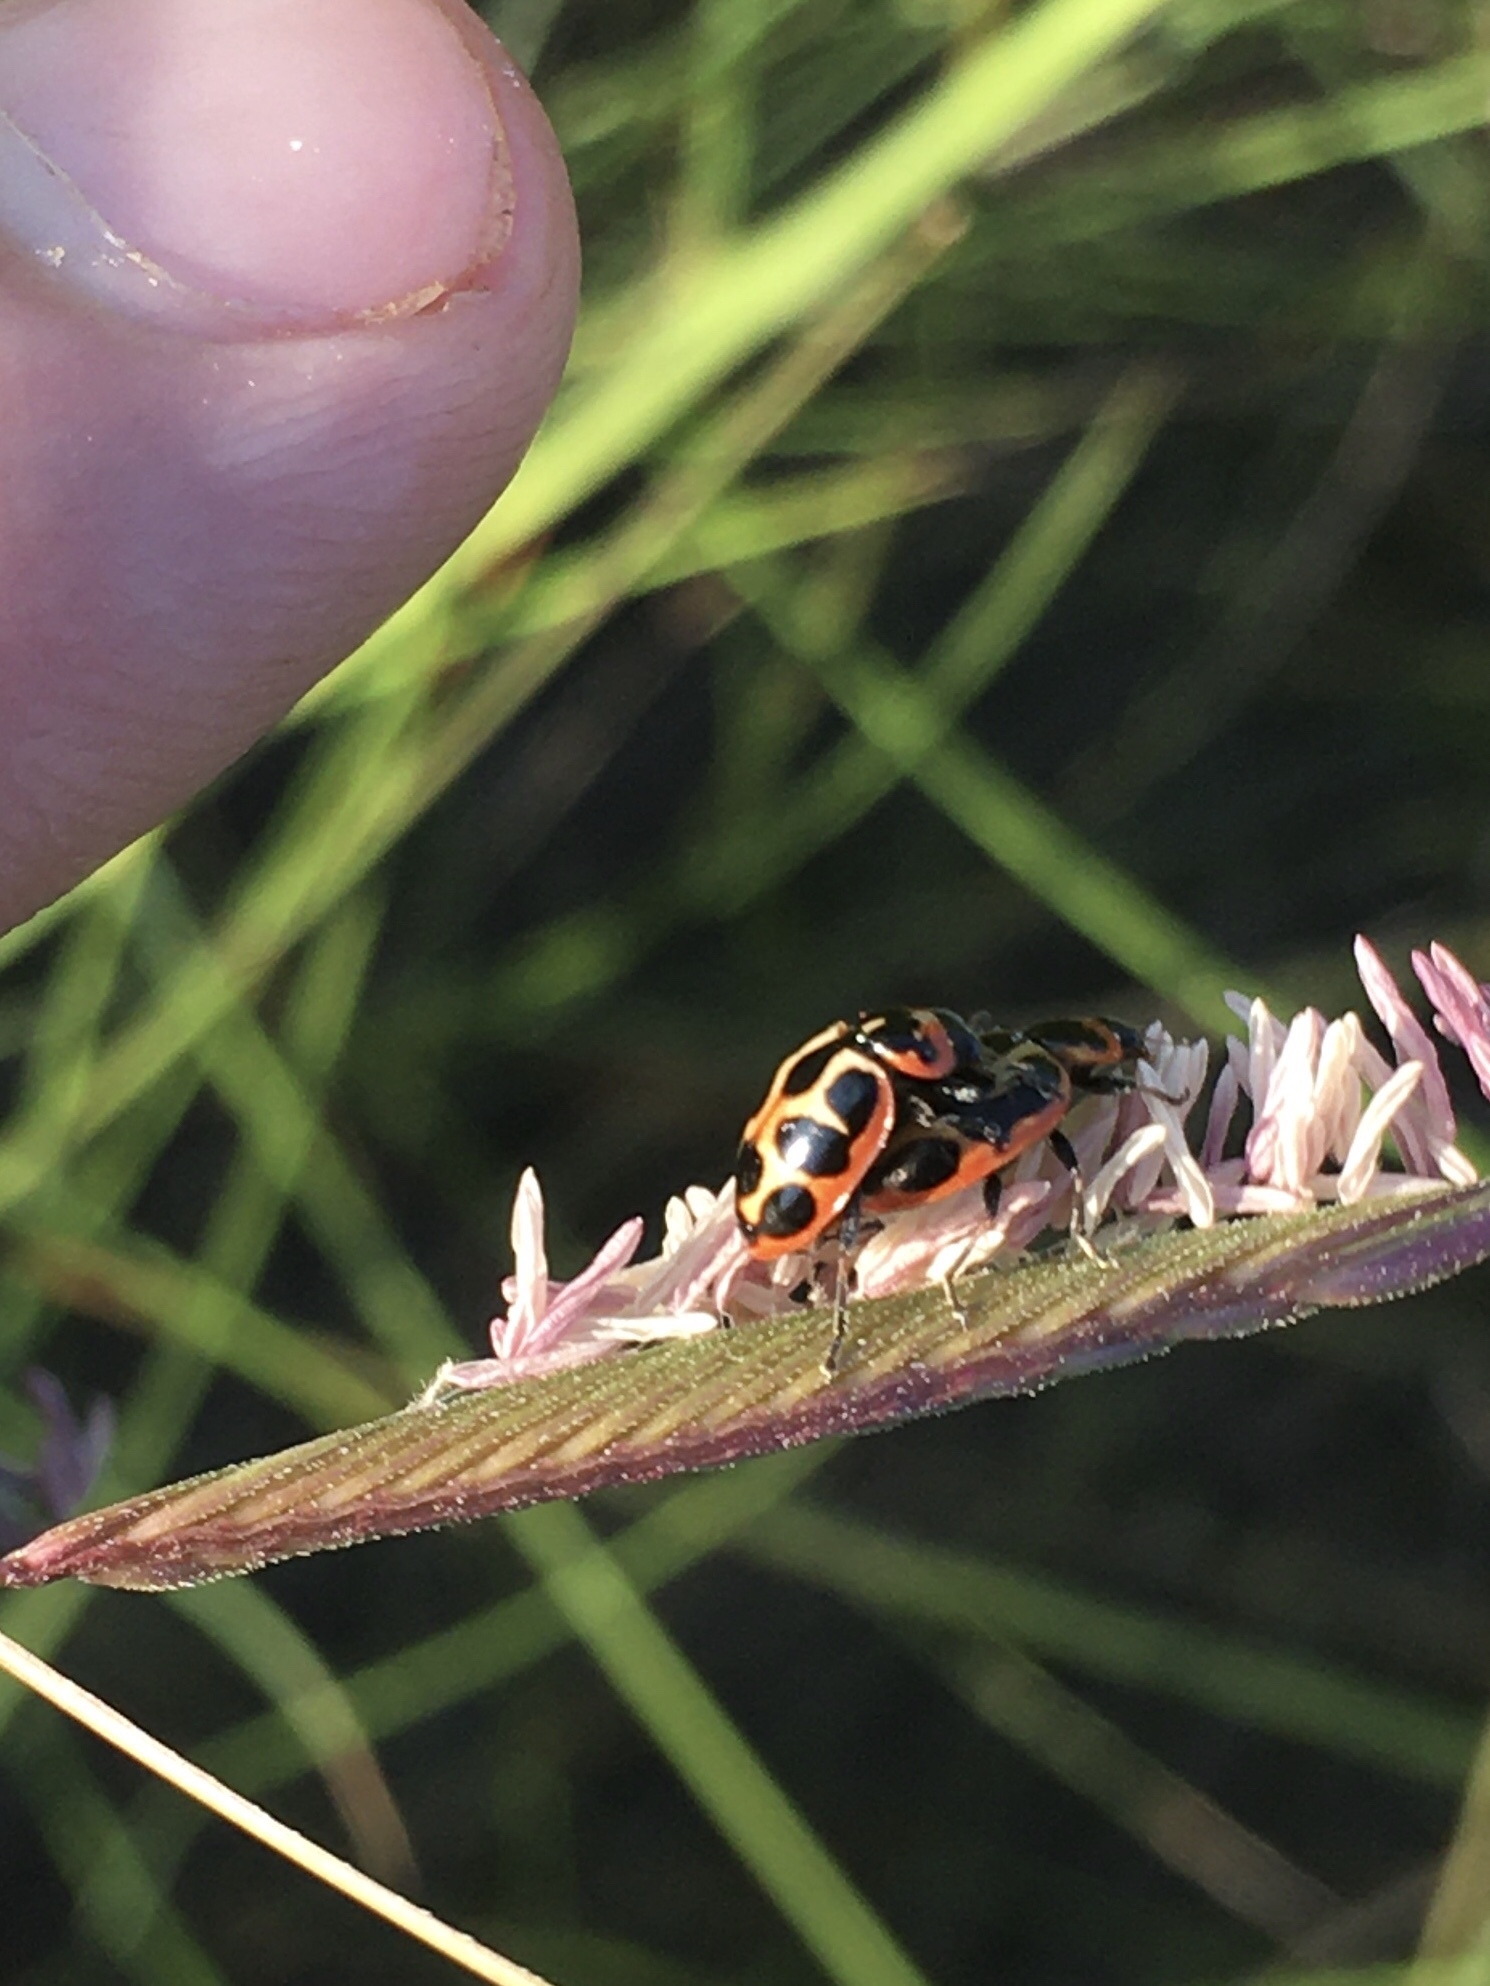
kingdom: Animalia
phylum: Arthropoda
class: Insecta
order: Coleoptera
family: Coccinellidae
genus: Naemia
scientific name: Naemia seriata
